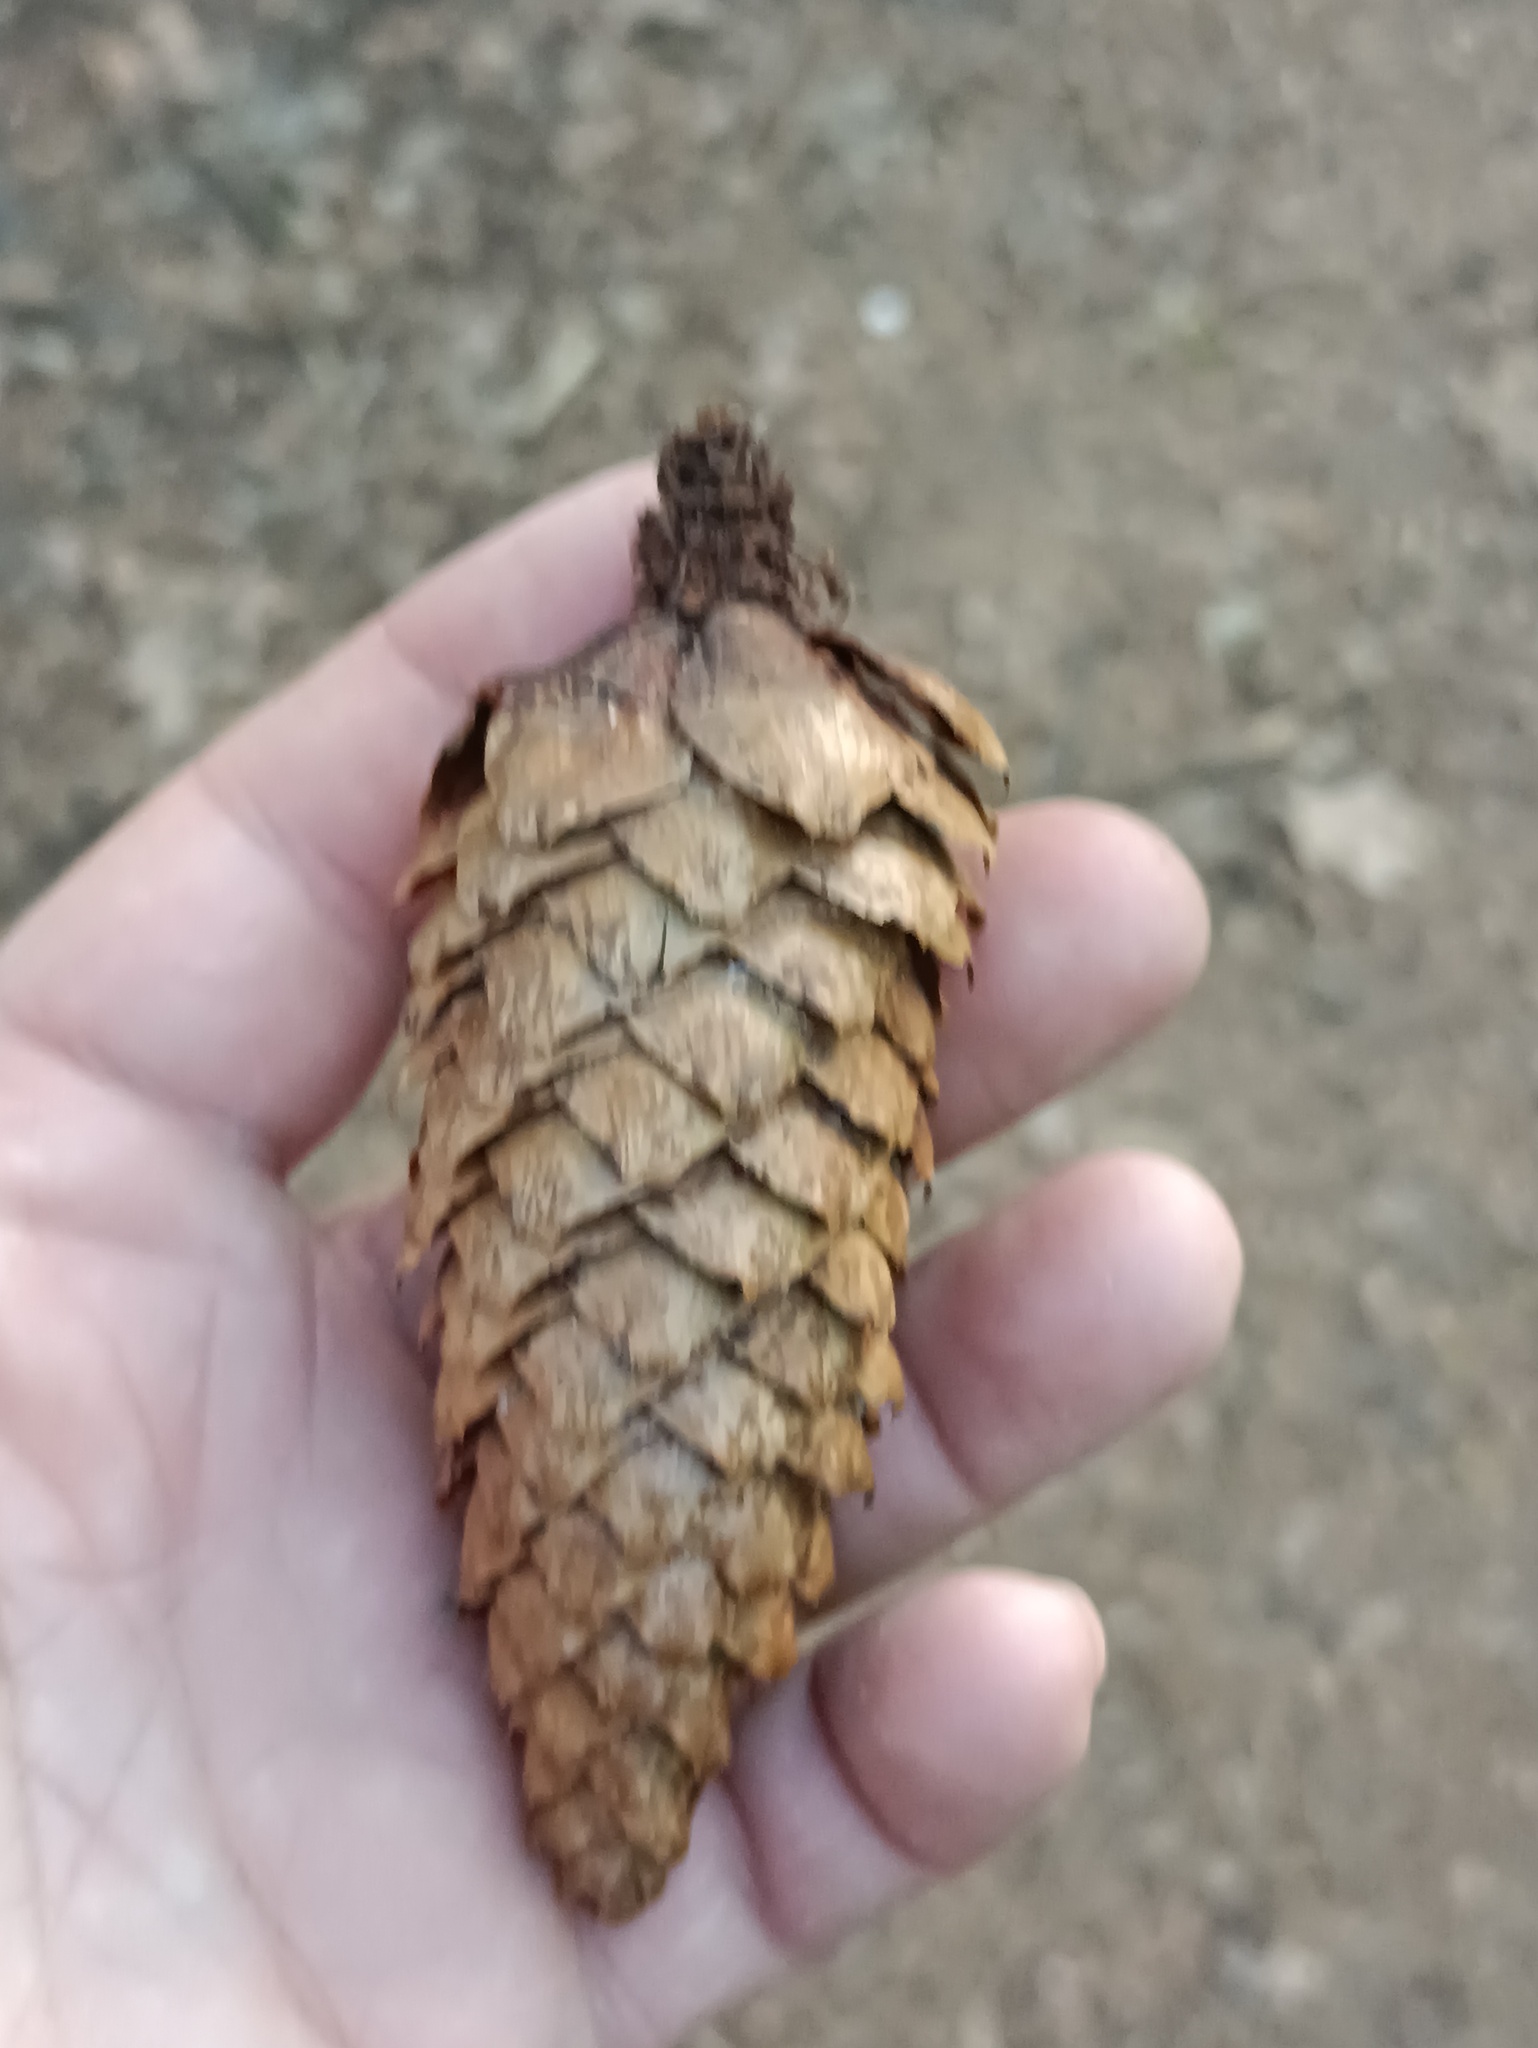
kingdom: Plantae
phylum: Tracheophyta
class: Pinopsida
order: Pinales
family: Pinaceae
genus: Picea
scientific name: Picea abies
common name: Norway spruce
